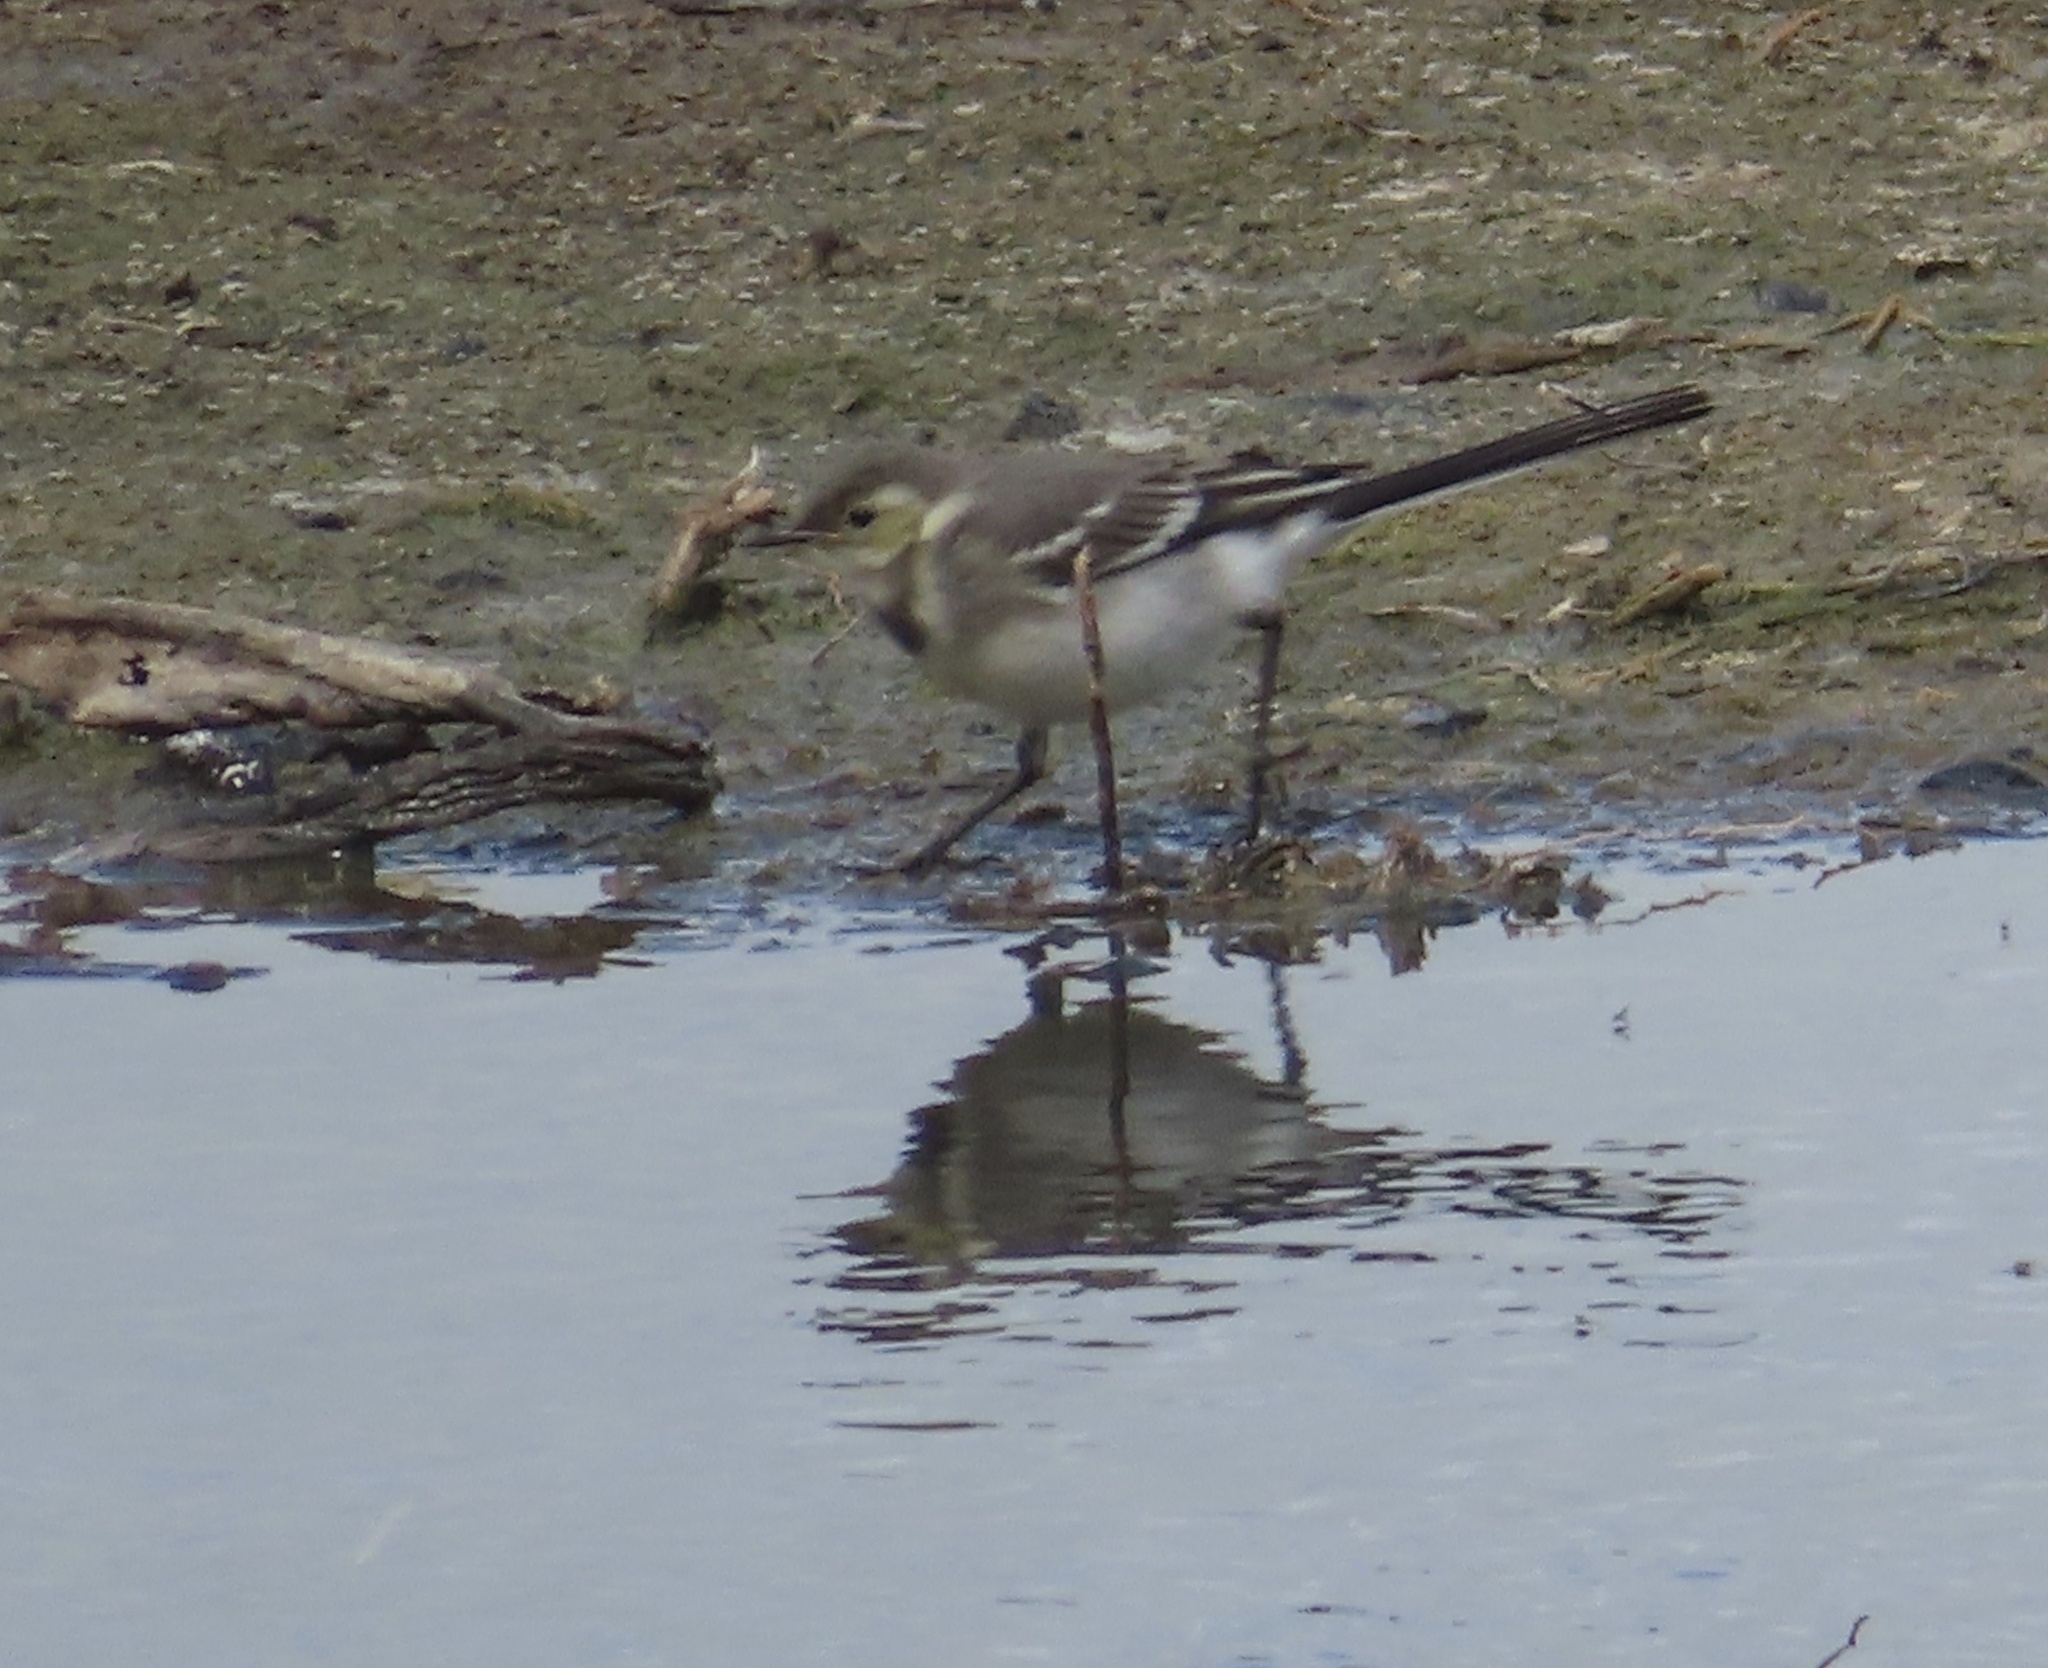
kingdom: Animalia
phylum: Chordata
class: Aves
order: Passeriformes
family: Motacillidae
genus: Motacilla
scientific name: Motacilla alba
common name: White wagtail
